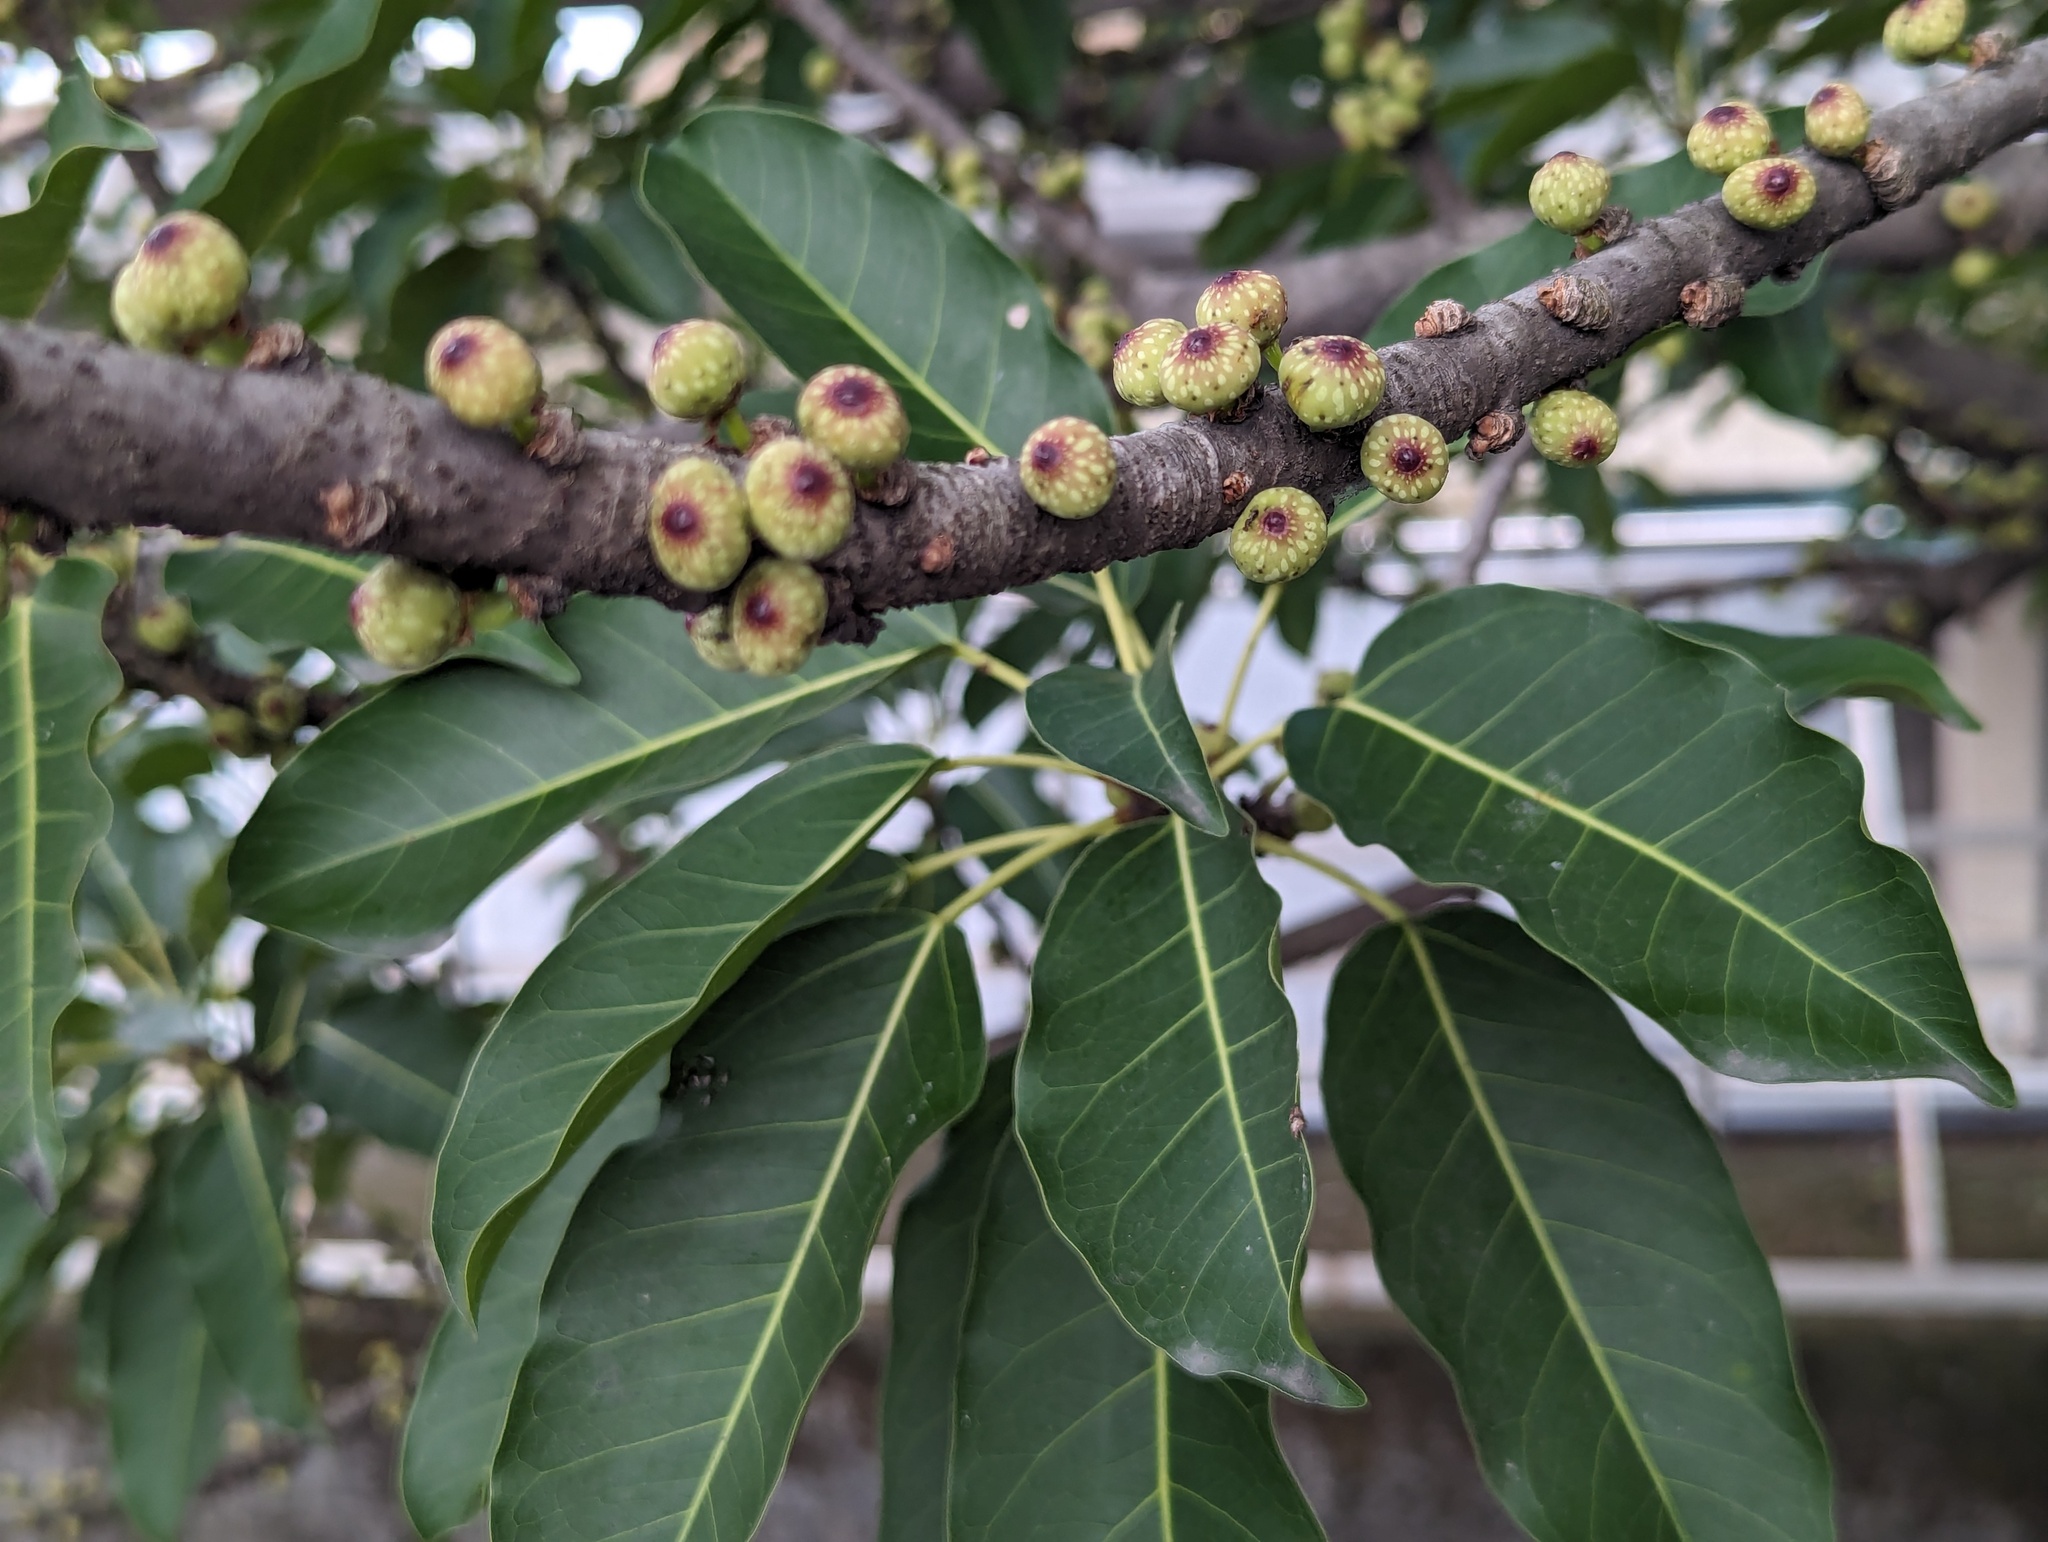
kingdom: Plantae
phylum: Tracheophyta
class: Magnoliopsida
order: Rosales
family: Moraceae
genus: Ficus
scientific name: Ficus subpisocarpa
